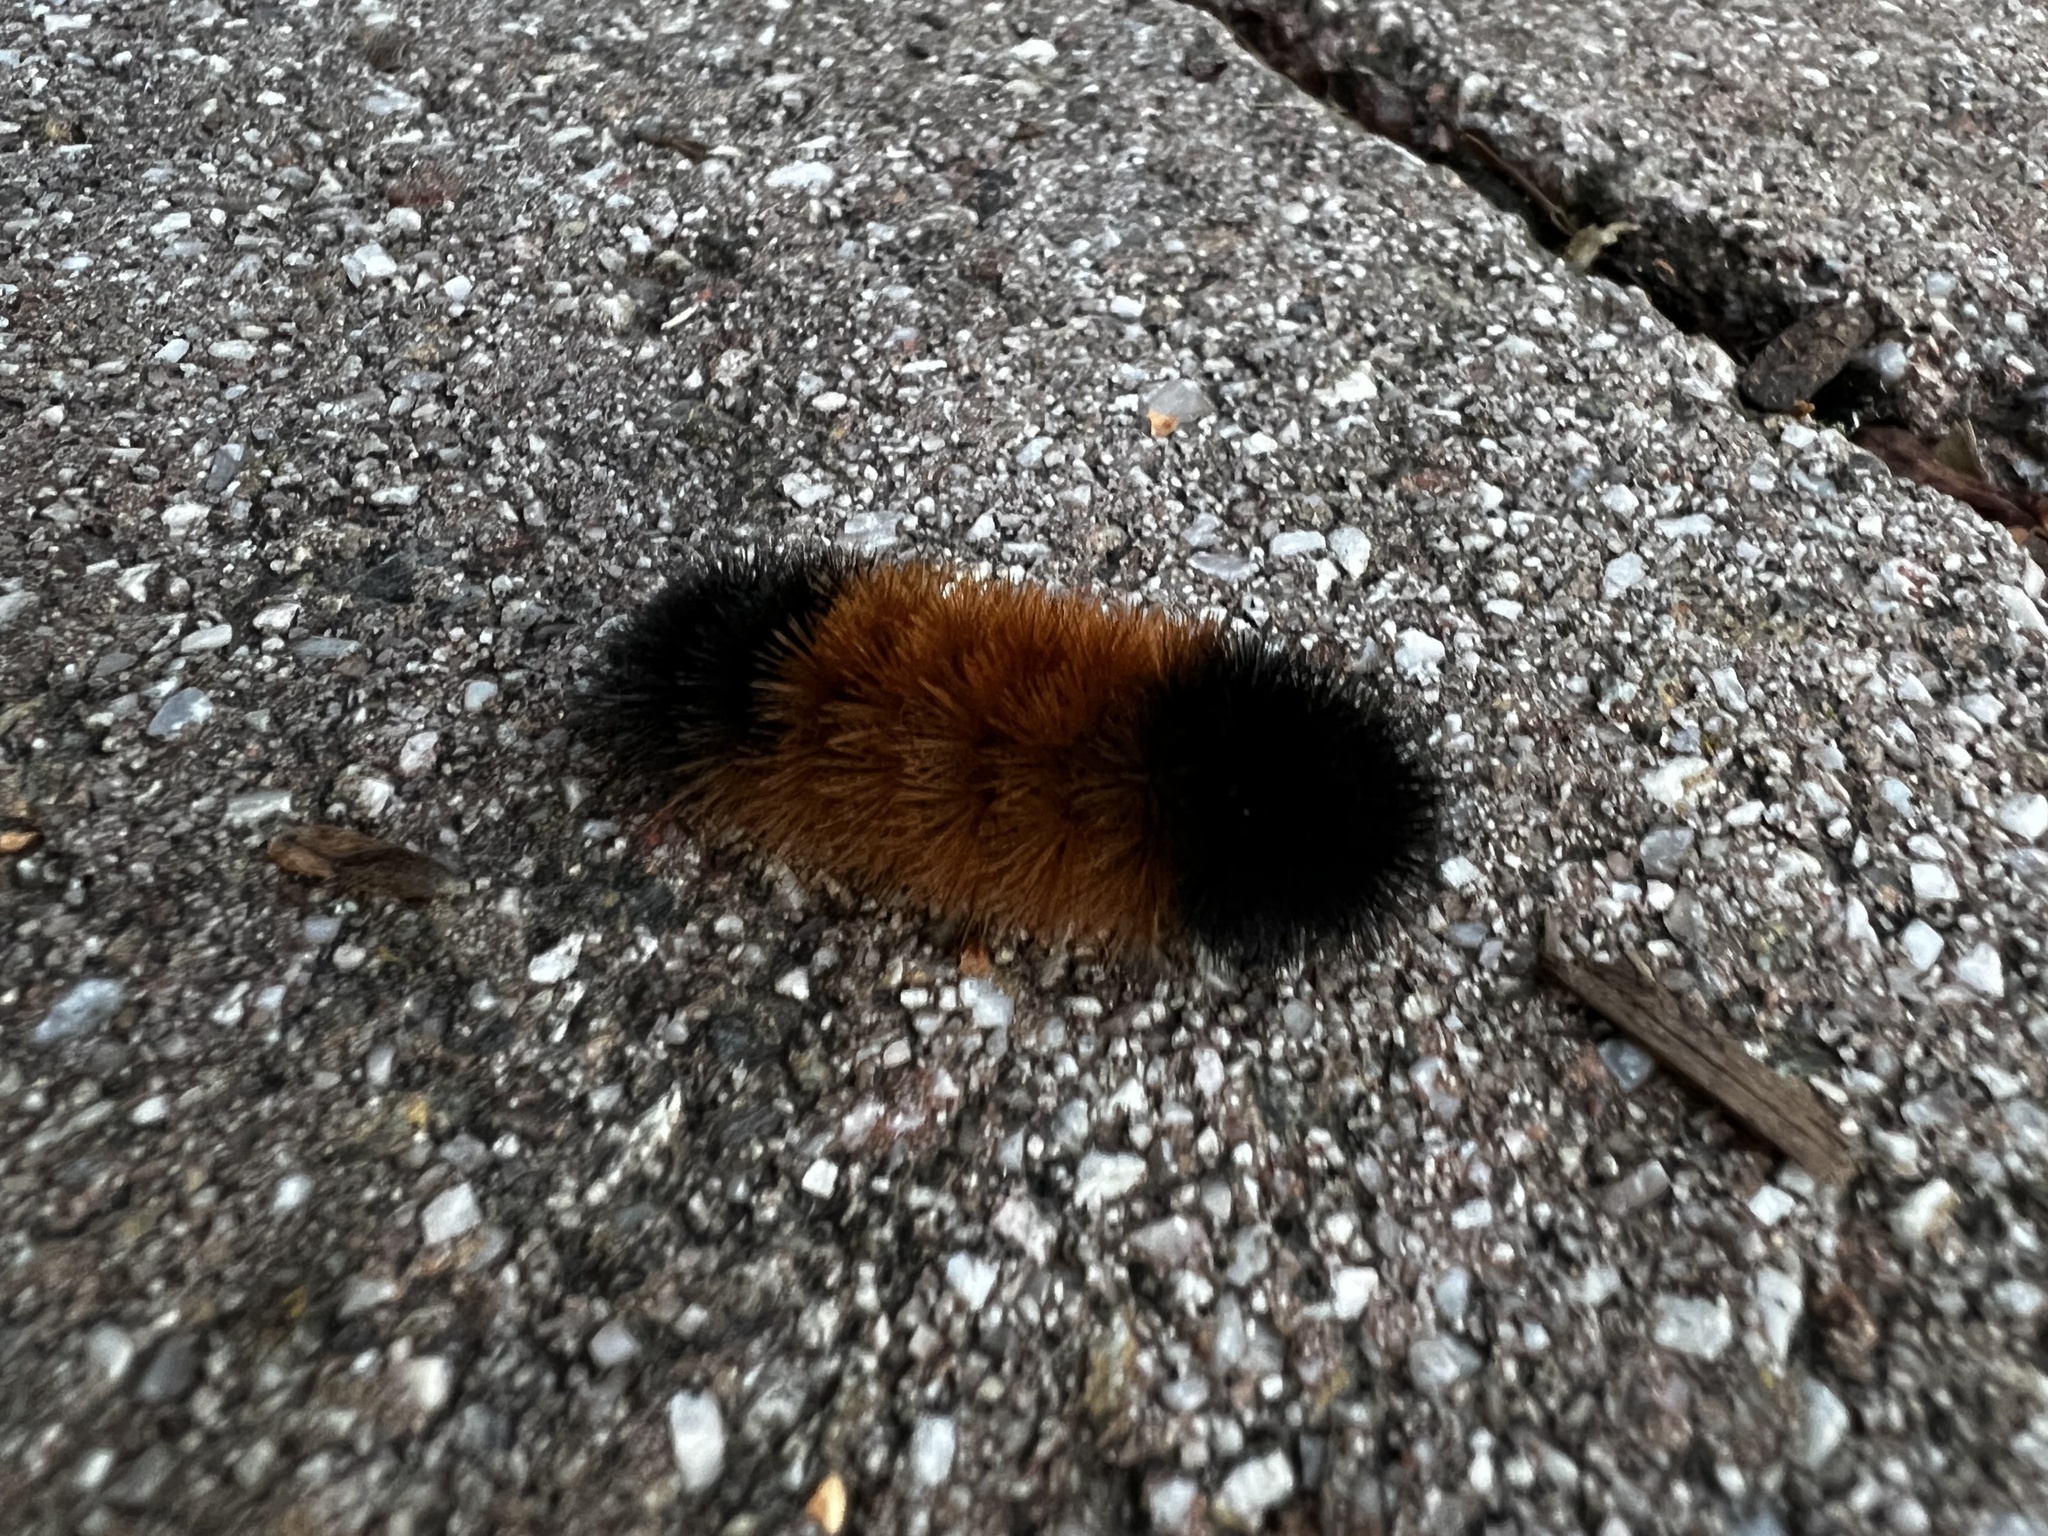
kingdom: Animalia
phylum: Arthropoda
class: Insecta
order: Lepidoptera
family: Erebidae
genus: Pyrrharctia
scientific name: Pyrrharctia isabella
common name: Isabella tiger moth
